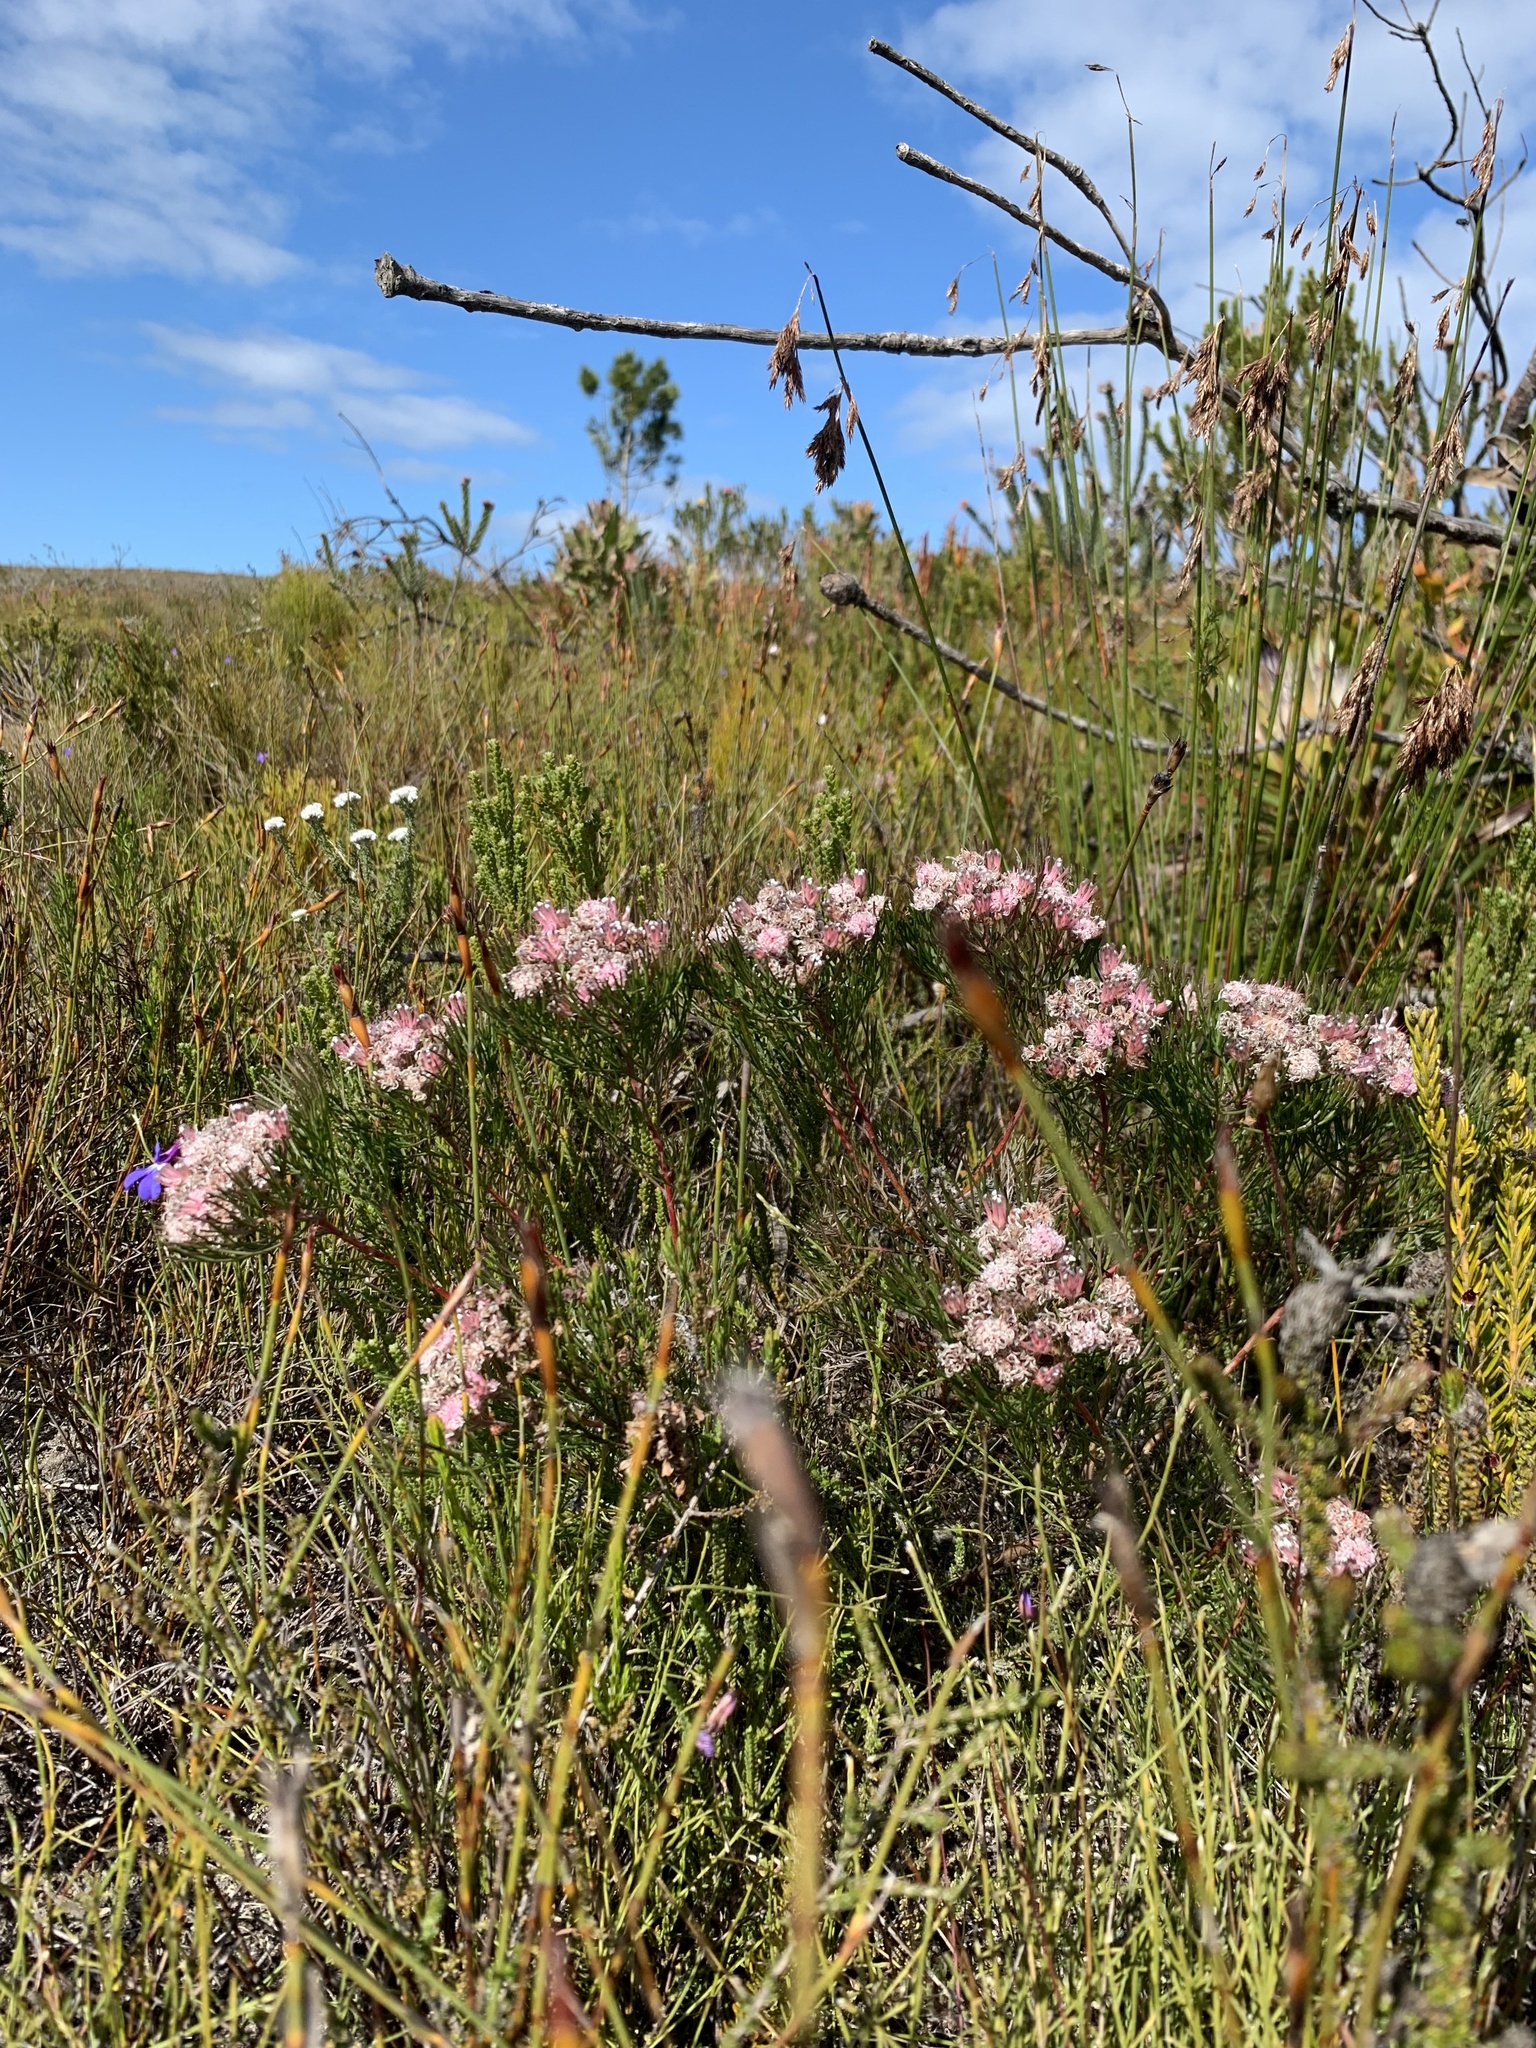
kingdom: Plantae
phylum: Tracheophyta
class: Magnoliopsida
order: Proteales
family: Proteaceae
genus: Serruria
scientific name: Serruria fasciflora
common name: Common pin spiderhead
